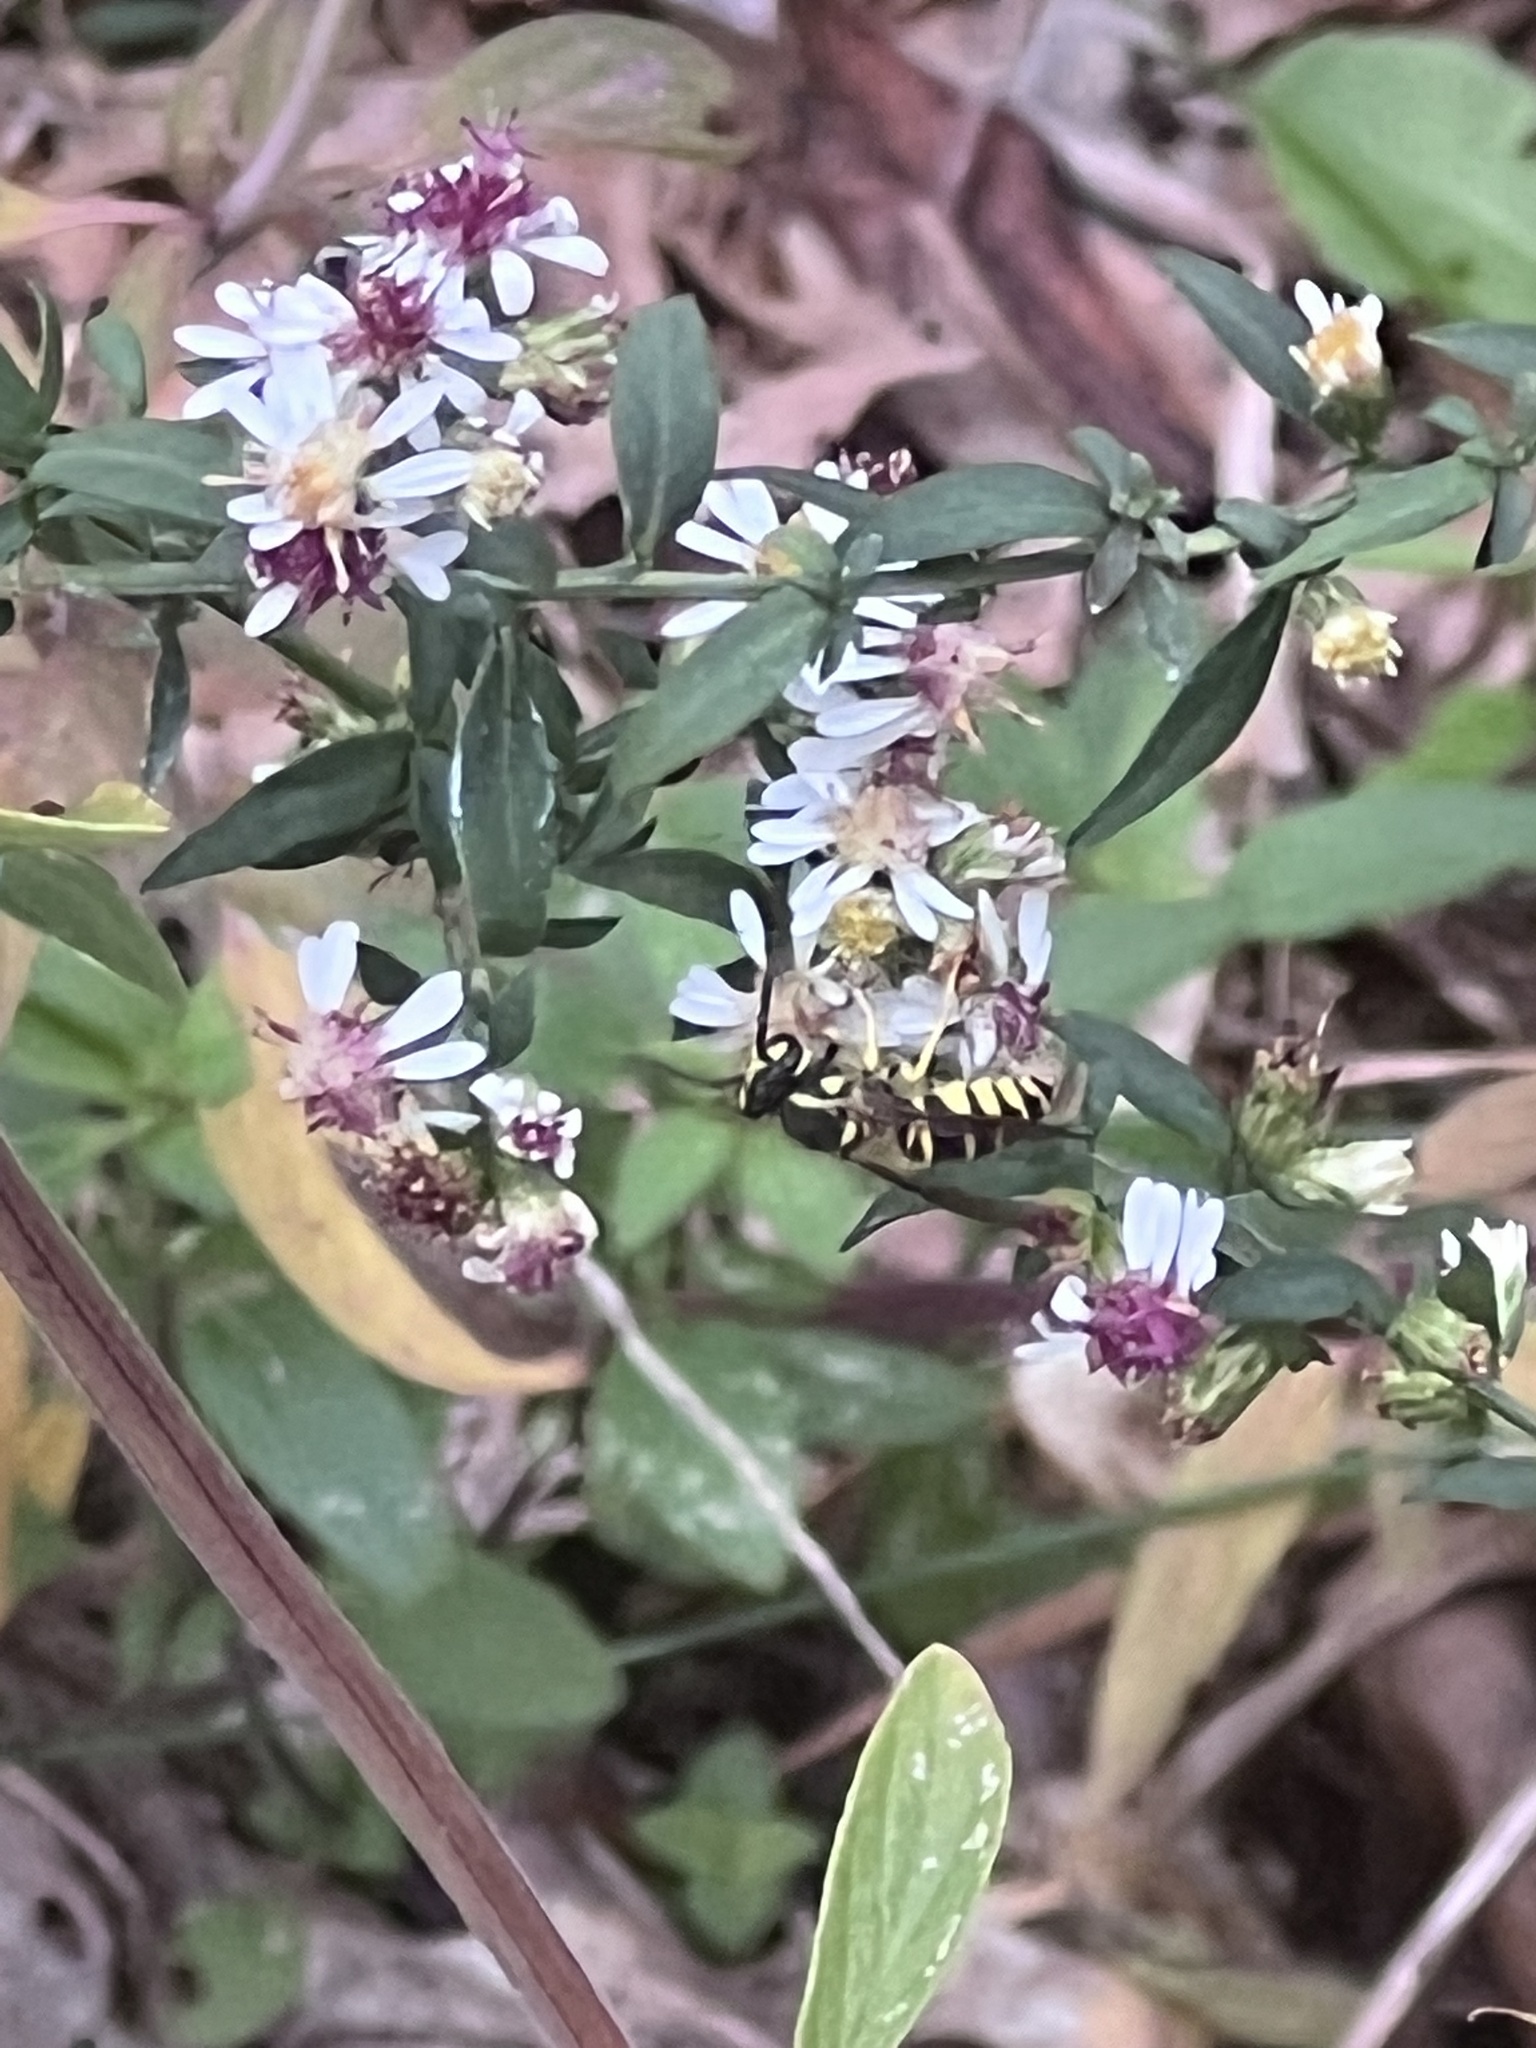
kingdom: Animalia
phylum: Arthropoda
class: Insecta
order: Hymenoptera
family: Vespidae
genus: Vespula
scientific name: Vespula maculifrons
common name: Eastern yellowjacket
